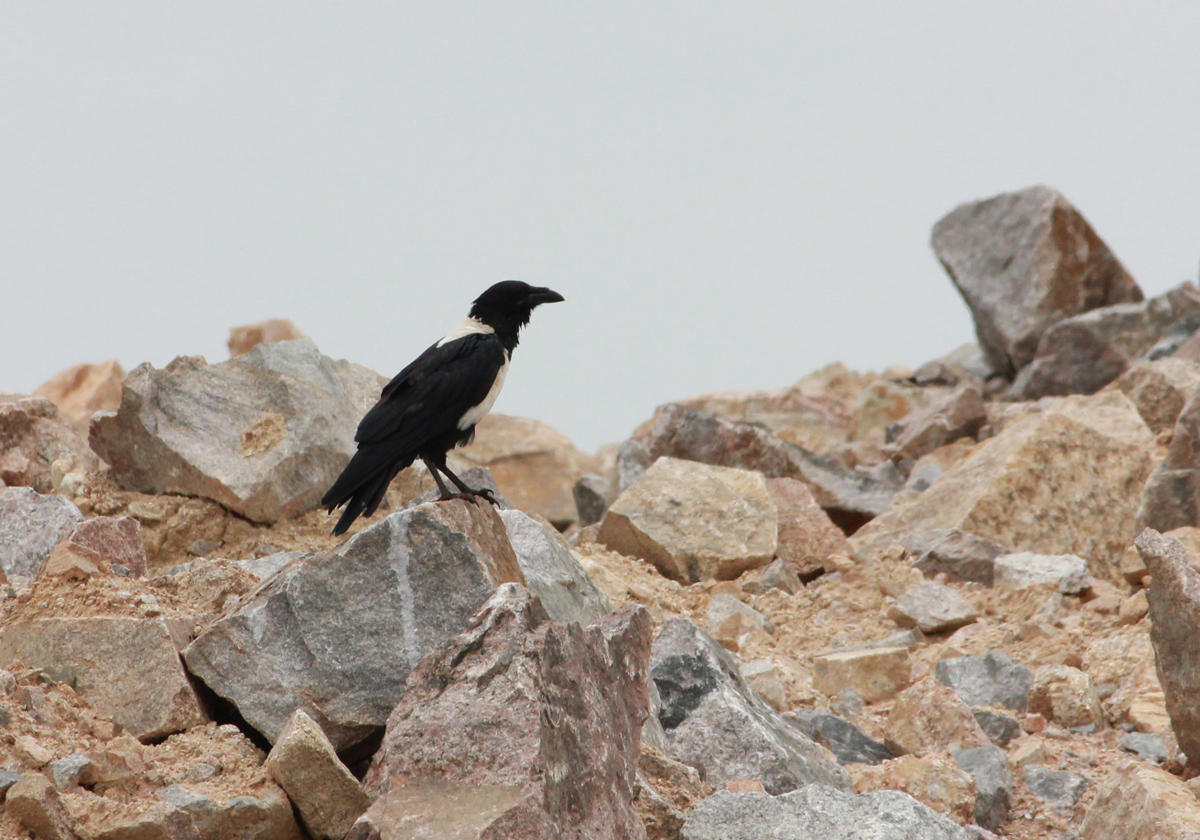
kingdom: Animalia
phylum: Chordata
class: Aves
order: Passeriformes
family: Corvidae
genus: Corvus
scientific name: Corvus albus
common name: Pied crow
